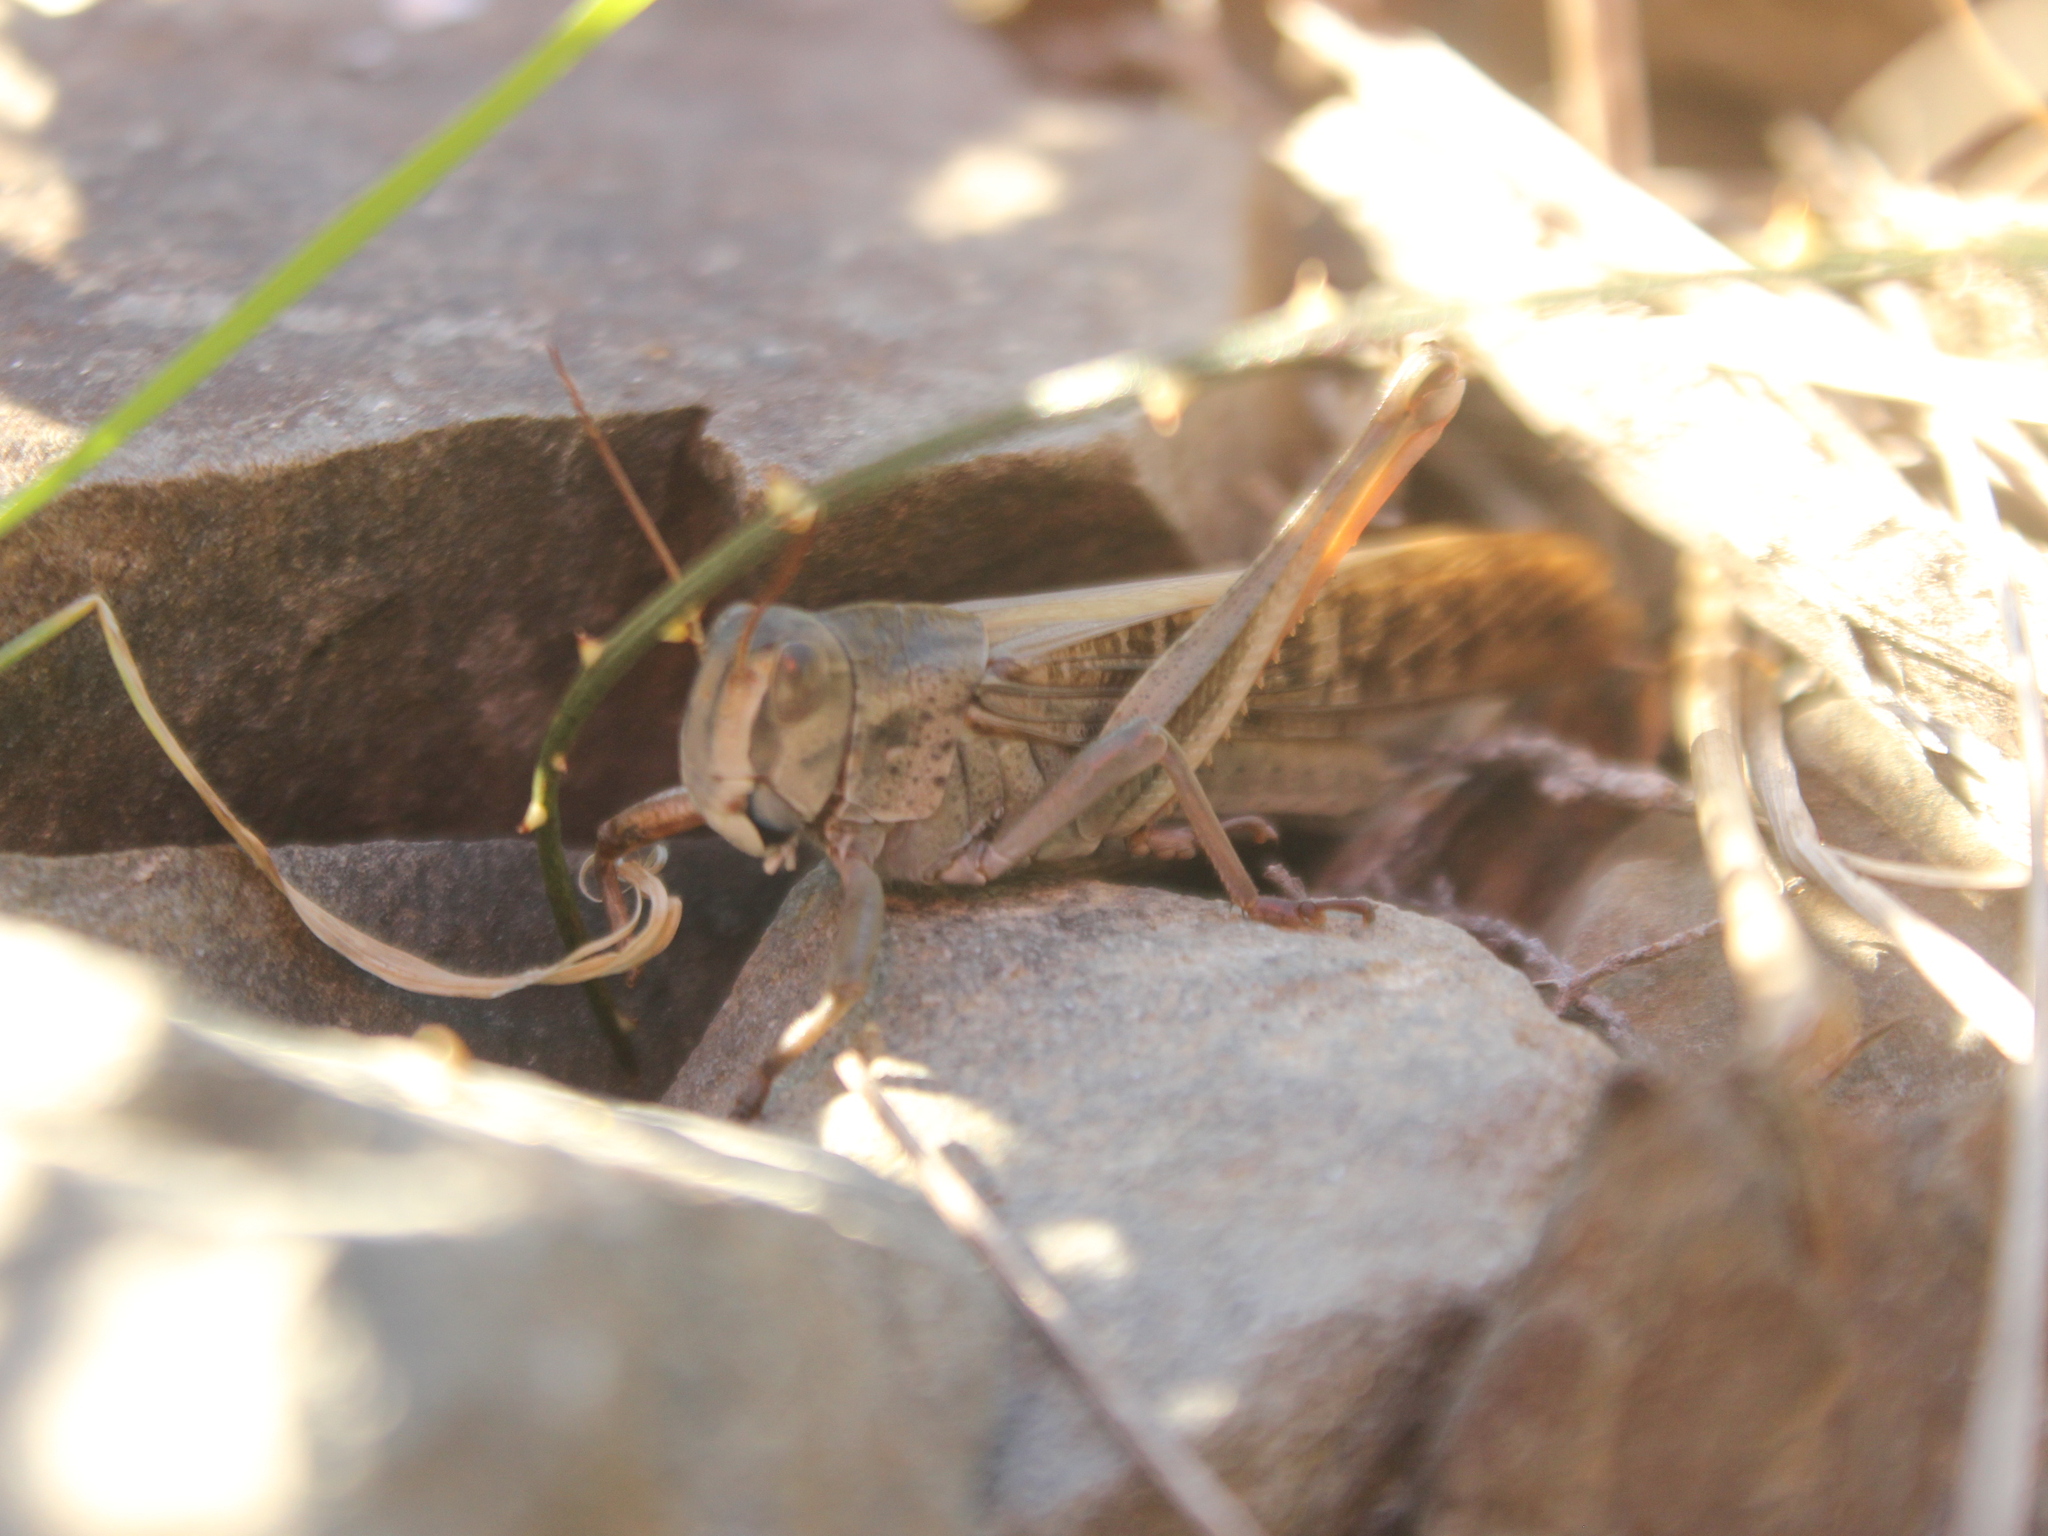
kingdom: Animalia
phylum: Arthropoda
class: Insecta
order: Orthoptera
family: Acrididae
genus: Locusta
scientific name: Locusta migratoria
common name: Migratory locust
